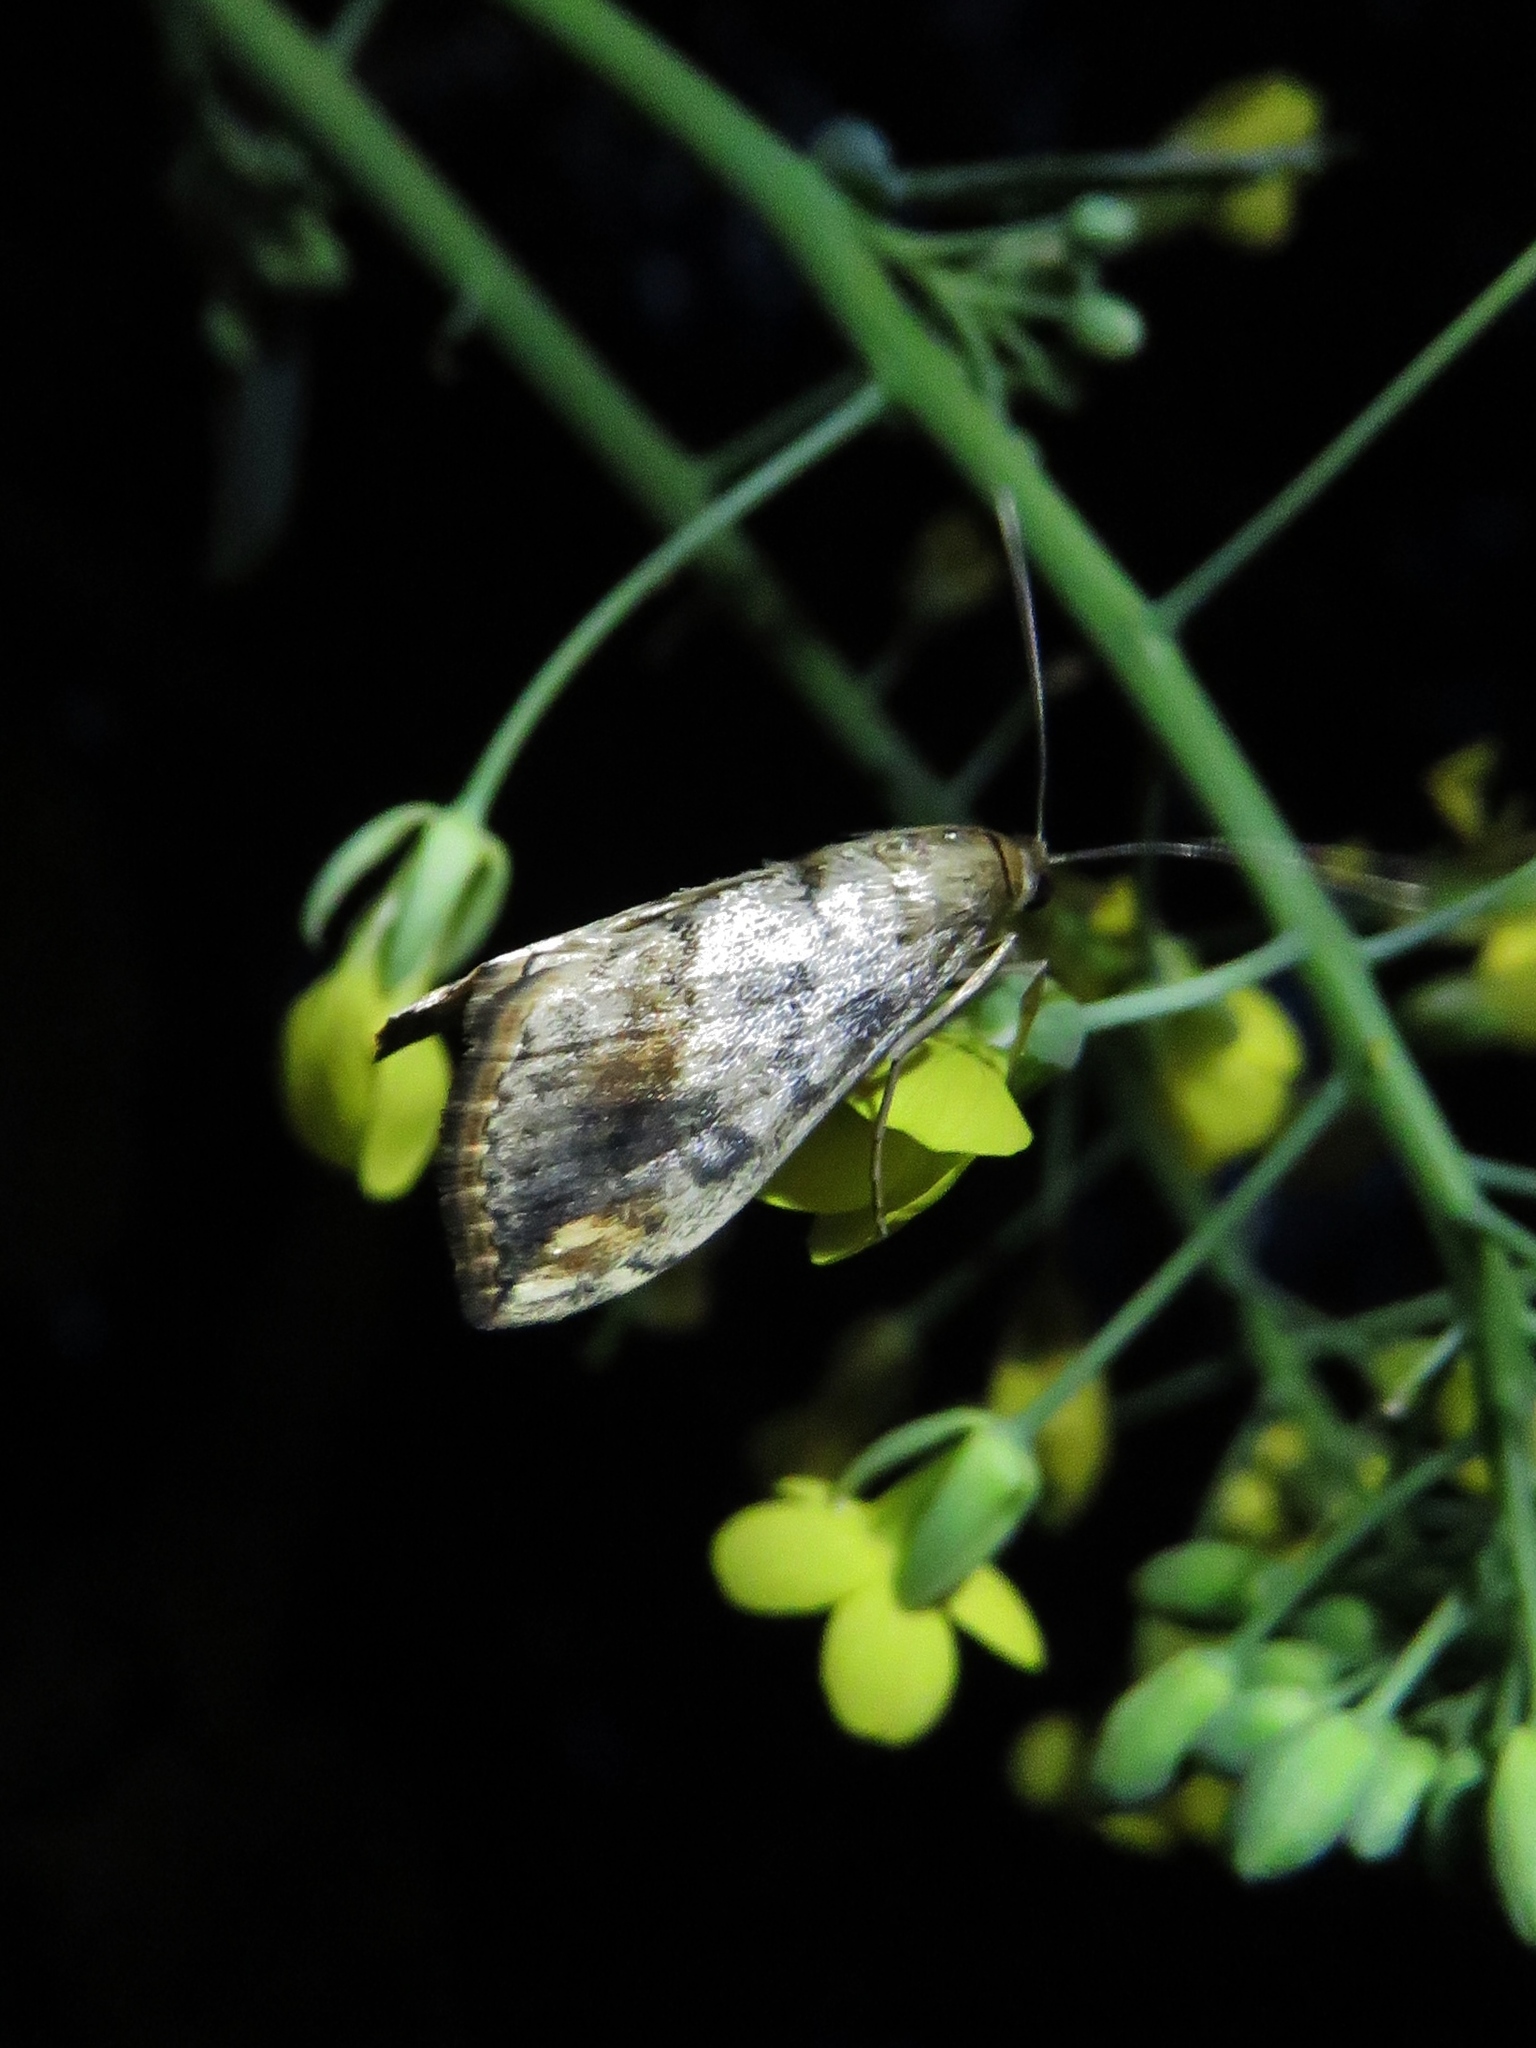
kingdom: Animalia
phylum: Arthropoda
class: Insecta
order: Lepidoptera
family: Crambidae
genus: Evergestis
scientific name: Evergestis rimosalis
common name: Cross-striped cabbageworm moth
